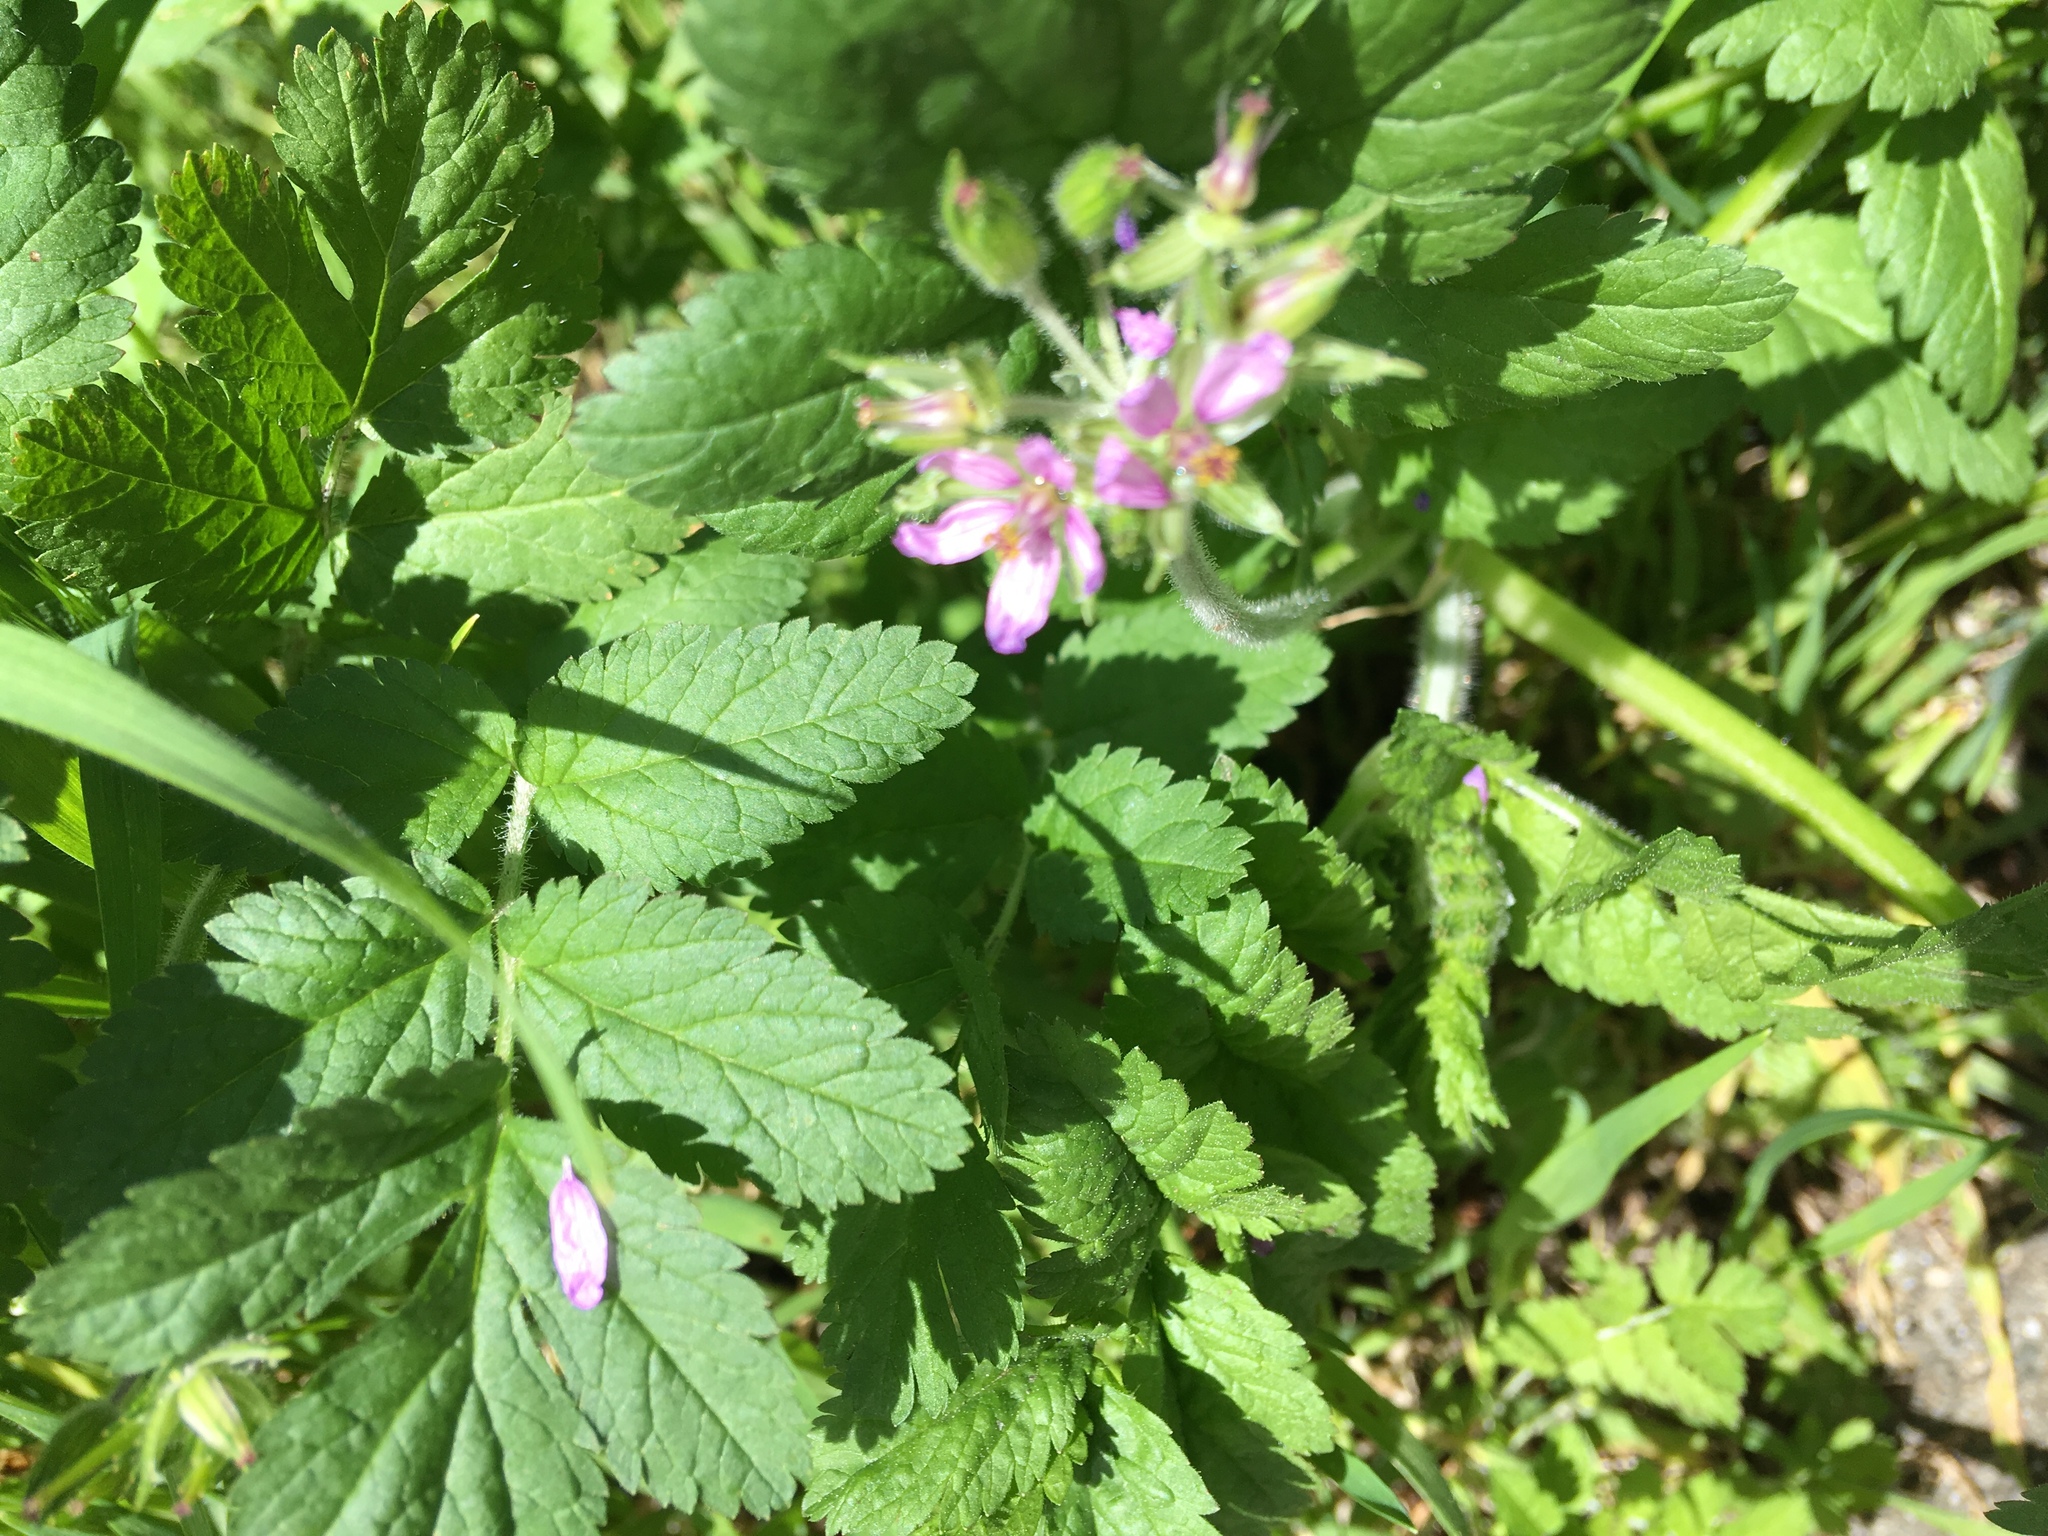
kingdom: Plantae
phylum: Tracheophyta
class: Magnoliopsida
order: Geraniales
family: Geraniaceae
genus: Erodium
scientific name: Erodium moschatum
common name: Musk stork's-bill
